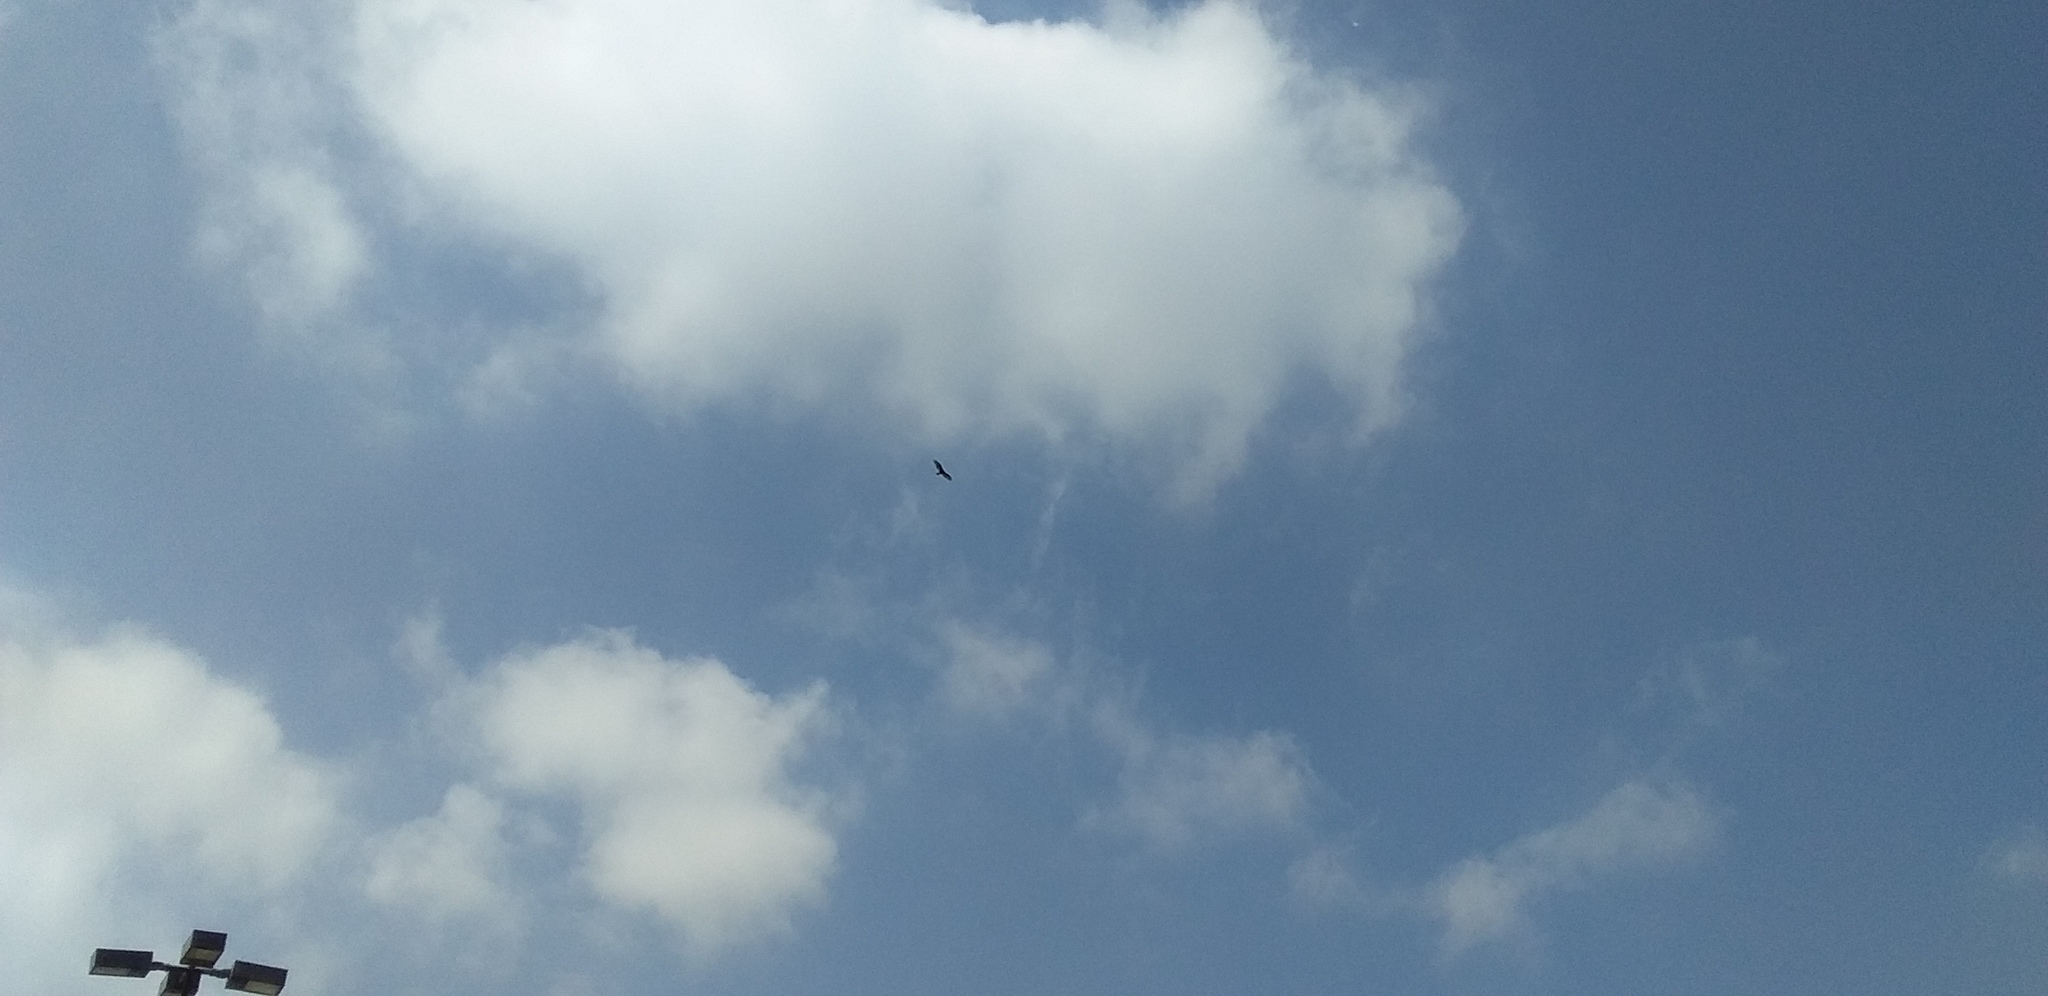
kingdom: Animalia
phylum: Chordata
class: Aves
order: Accipitriformes
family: Cathartidae
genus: Cathartes
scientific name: Cathartes aura
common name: Turkey vulture
